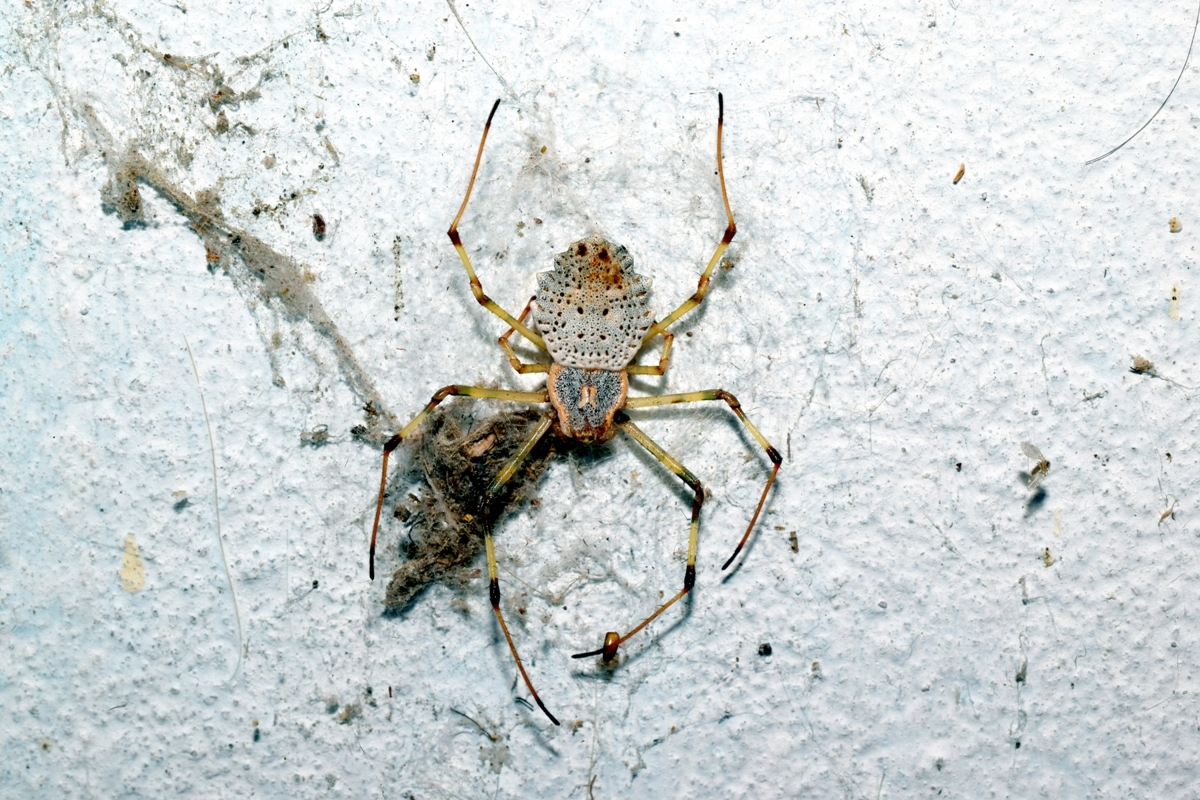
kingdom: Animalia
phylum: Arthropoda
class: Arachnida
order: Araneae
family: Araneidae
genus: Herennia
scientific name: Herennia multipuncta
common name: Spotted coin spider
